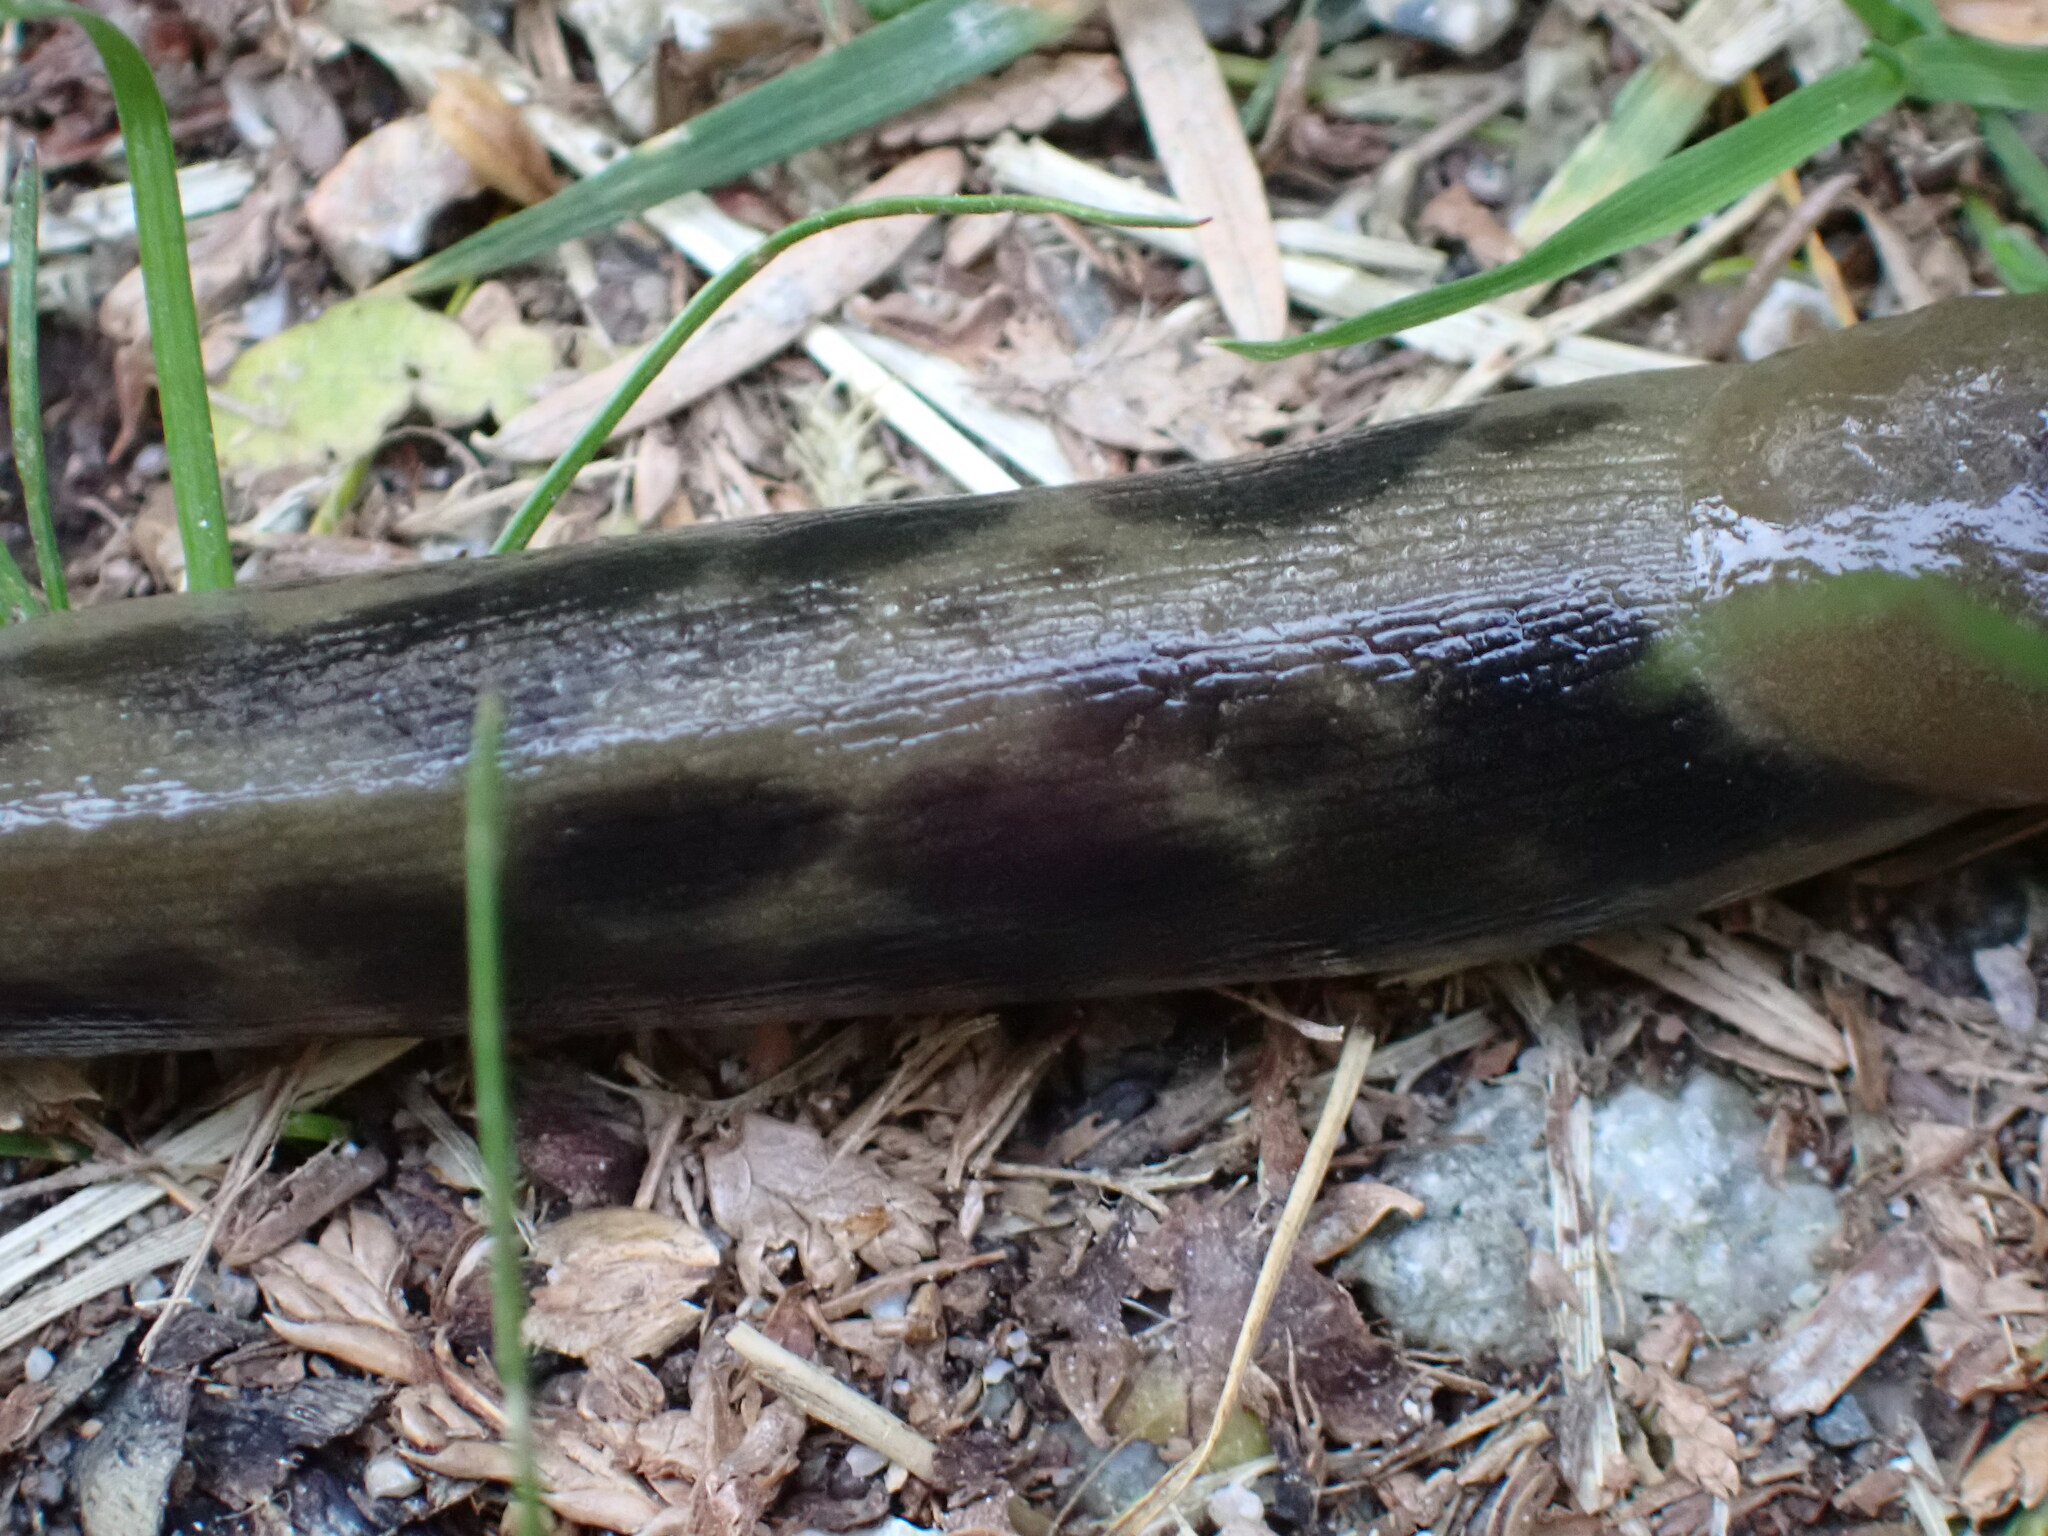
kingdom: Animalia
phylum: Mollusca
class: Gastropoda
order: Stylommatophora
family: Ariolimacidae
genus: Ariolimax
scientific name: Ariolimax columbianus
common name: Pacific banana slug
